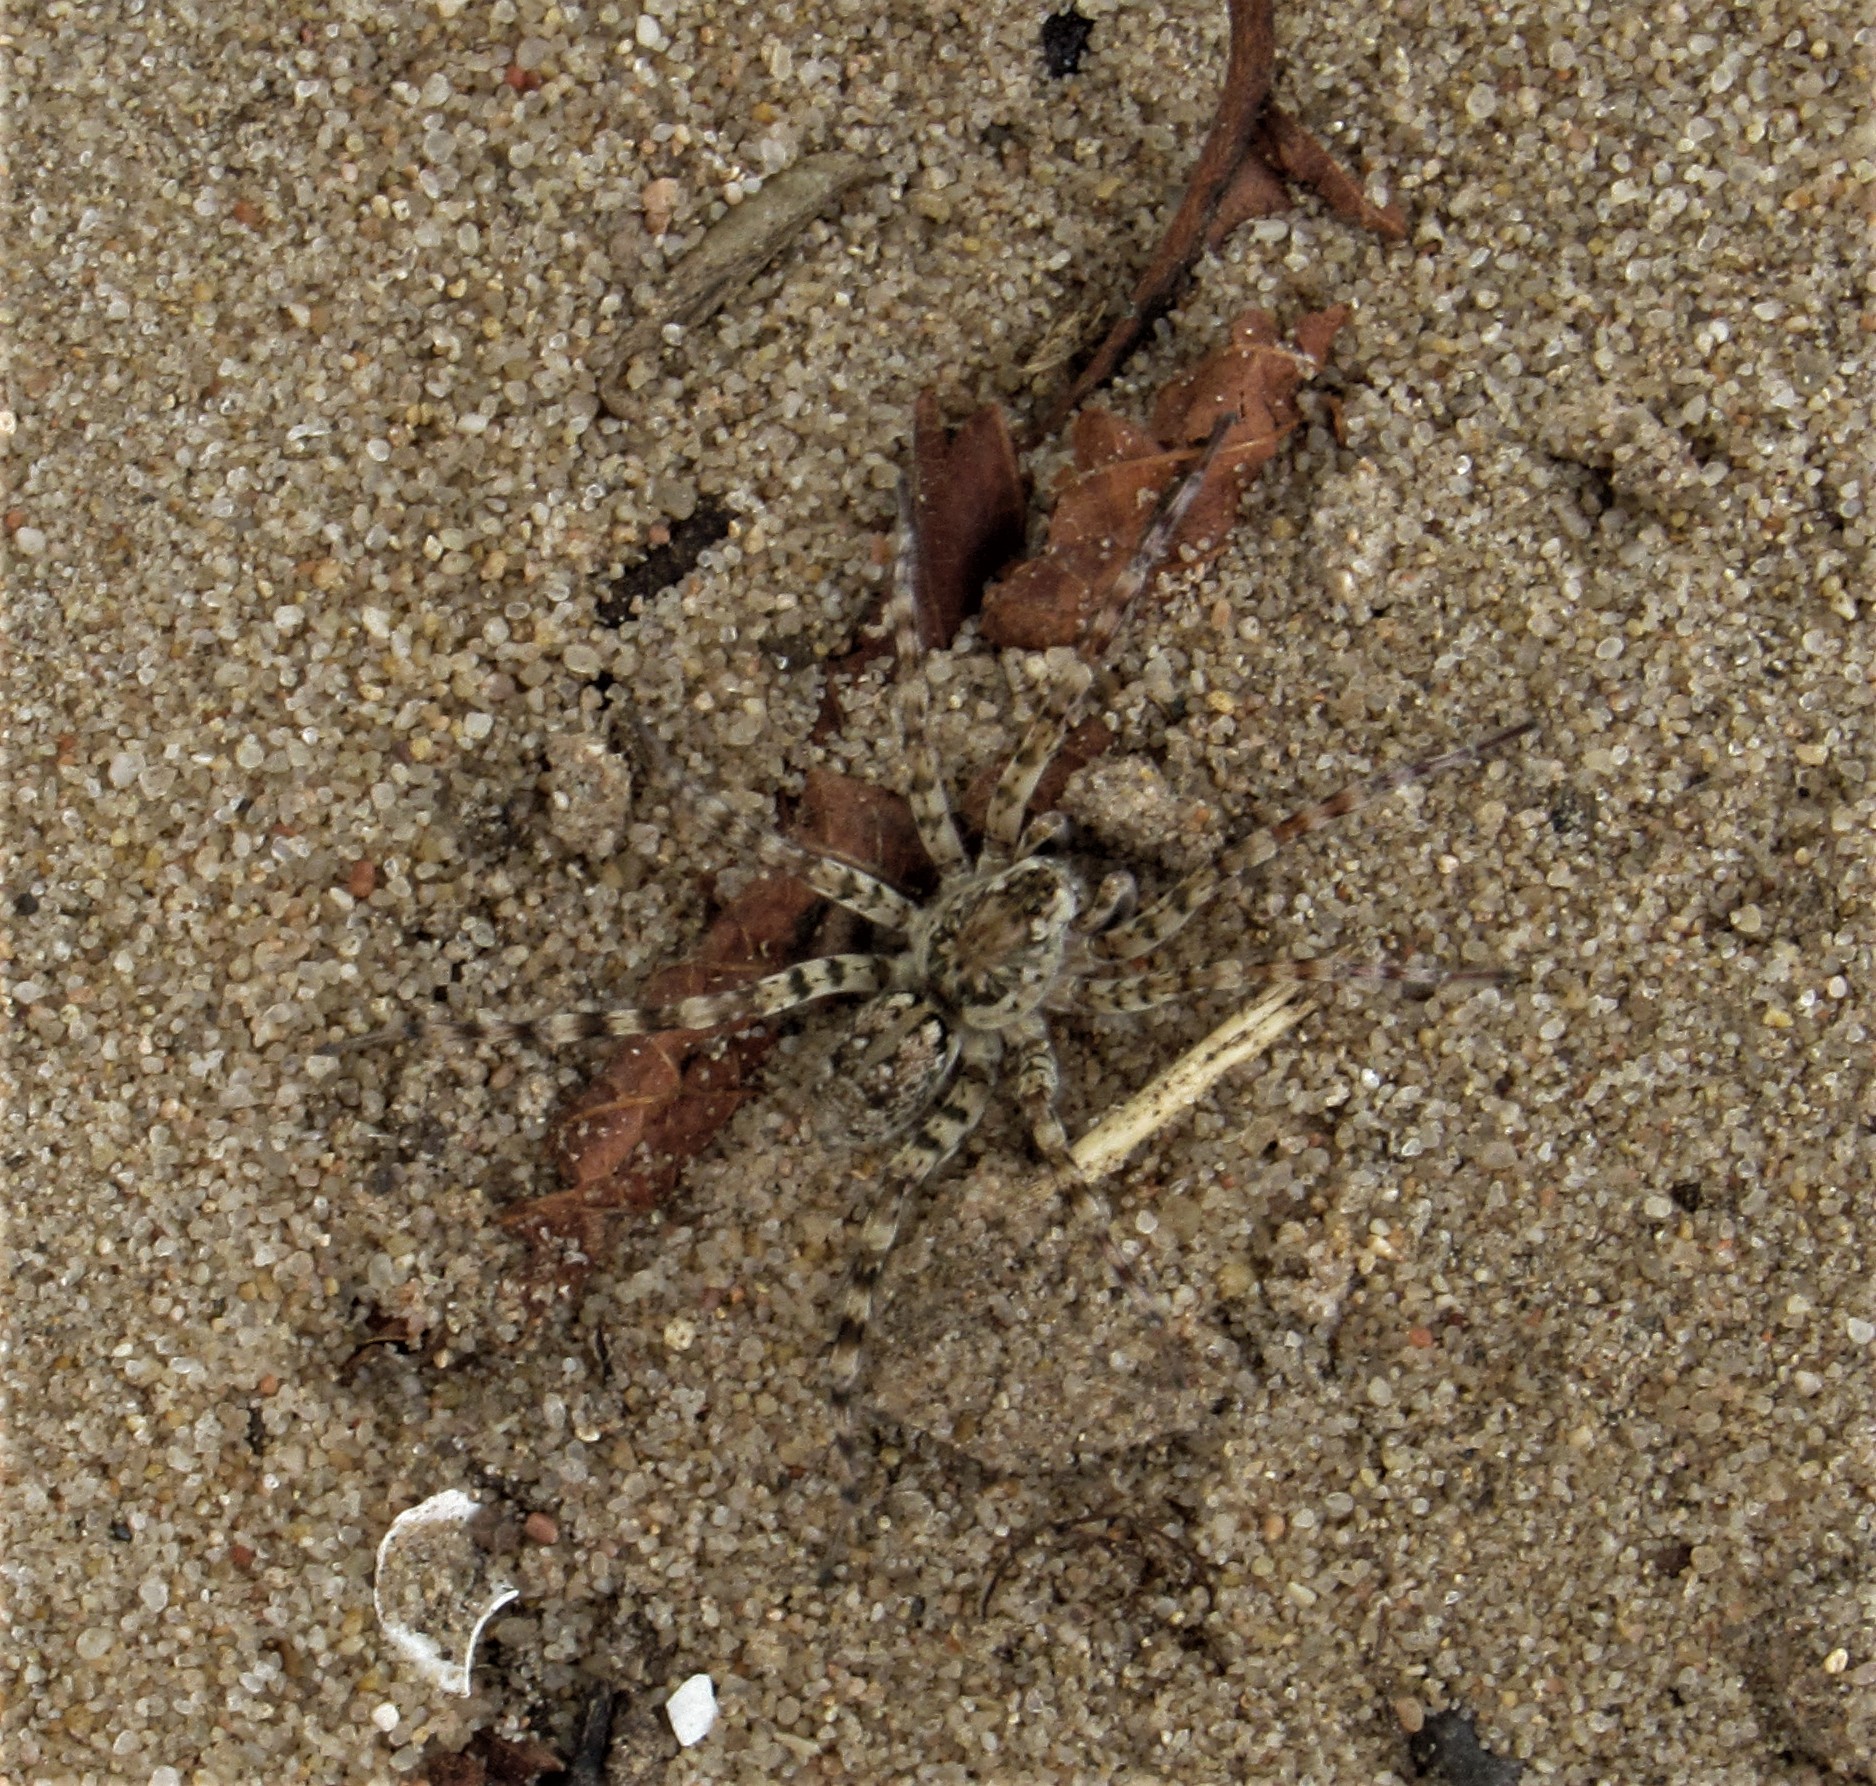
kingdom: Animalia
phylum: Arthropoda
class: Arachnida
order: Araneae
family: Lycosidae
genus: Arctosa
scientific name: Arctosa littoralis
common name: Wolf spiders
